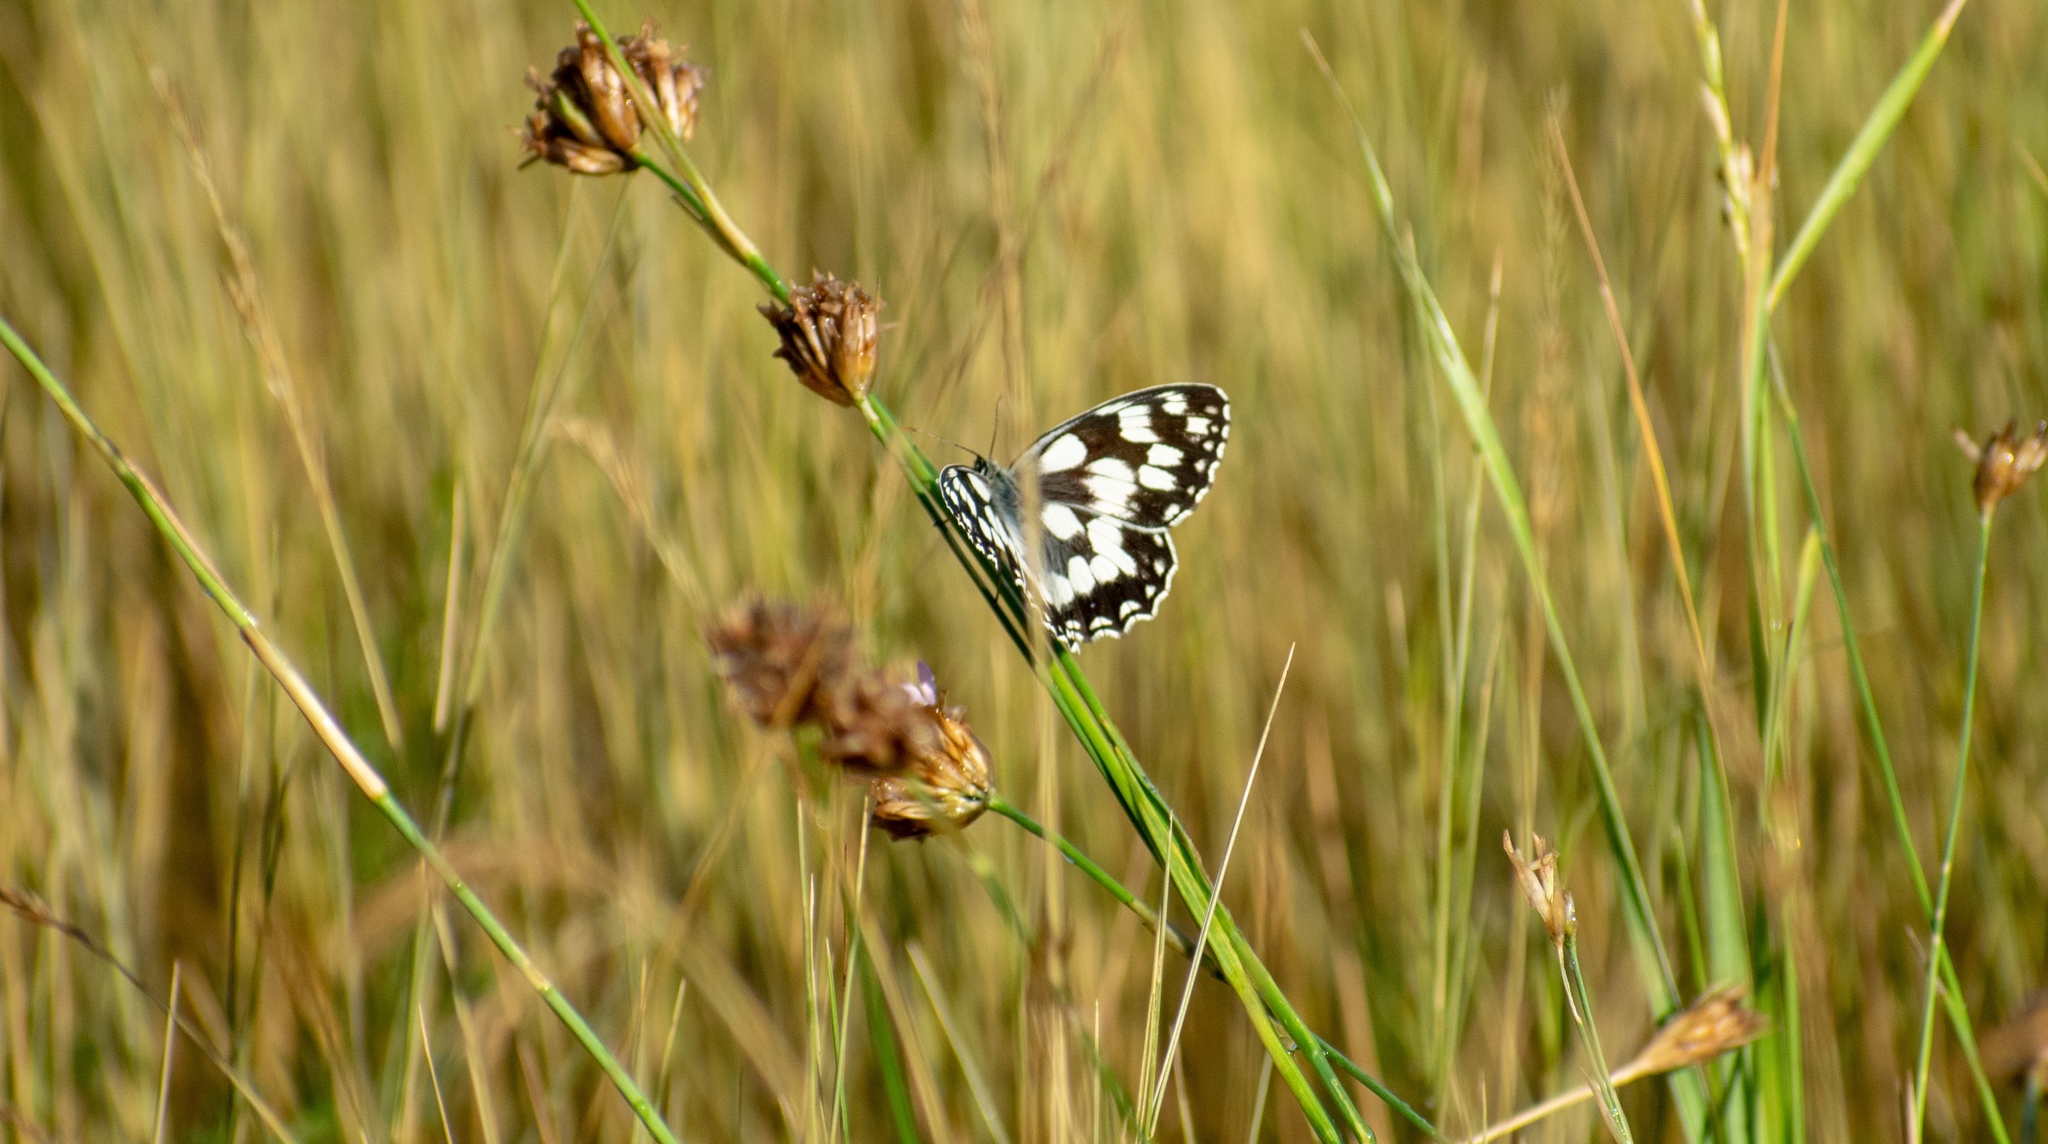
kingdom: Animalia
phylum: Arthropoda
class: Insecta
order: Lepidoptera
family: Nymphalidae
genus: Melanargia
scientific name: Melanargia galathea
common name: Marbled white
